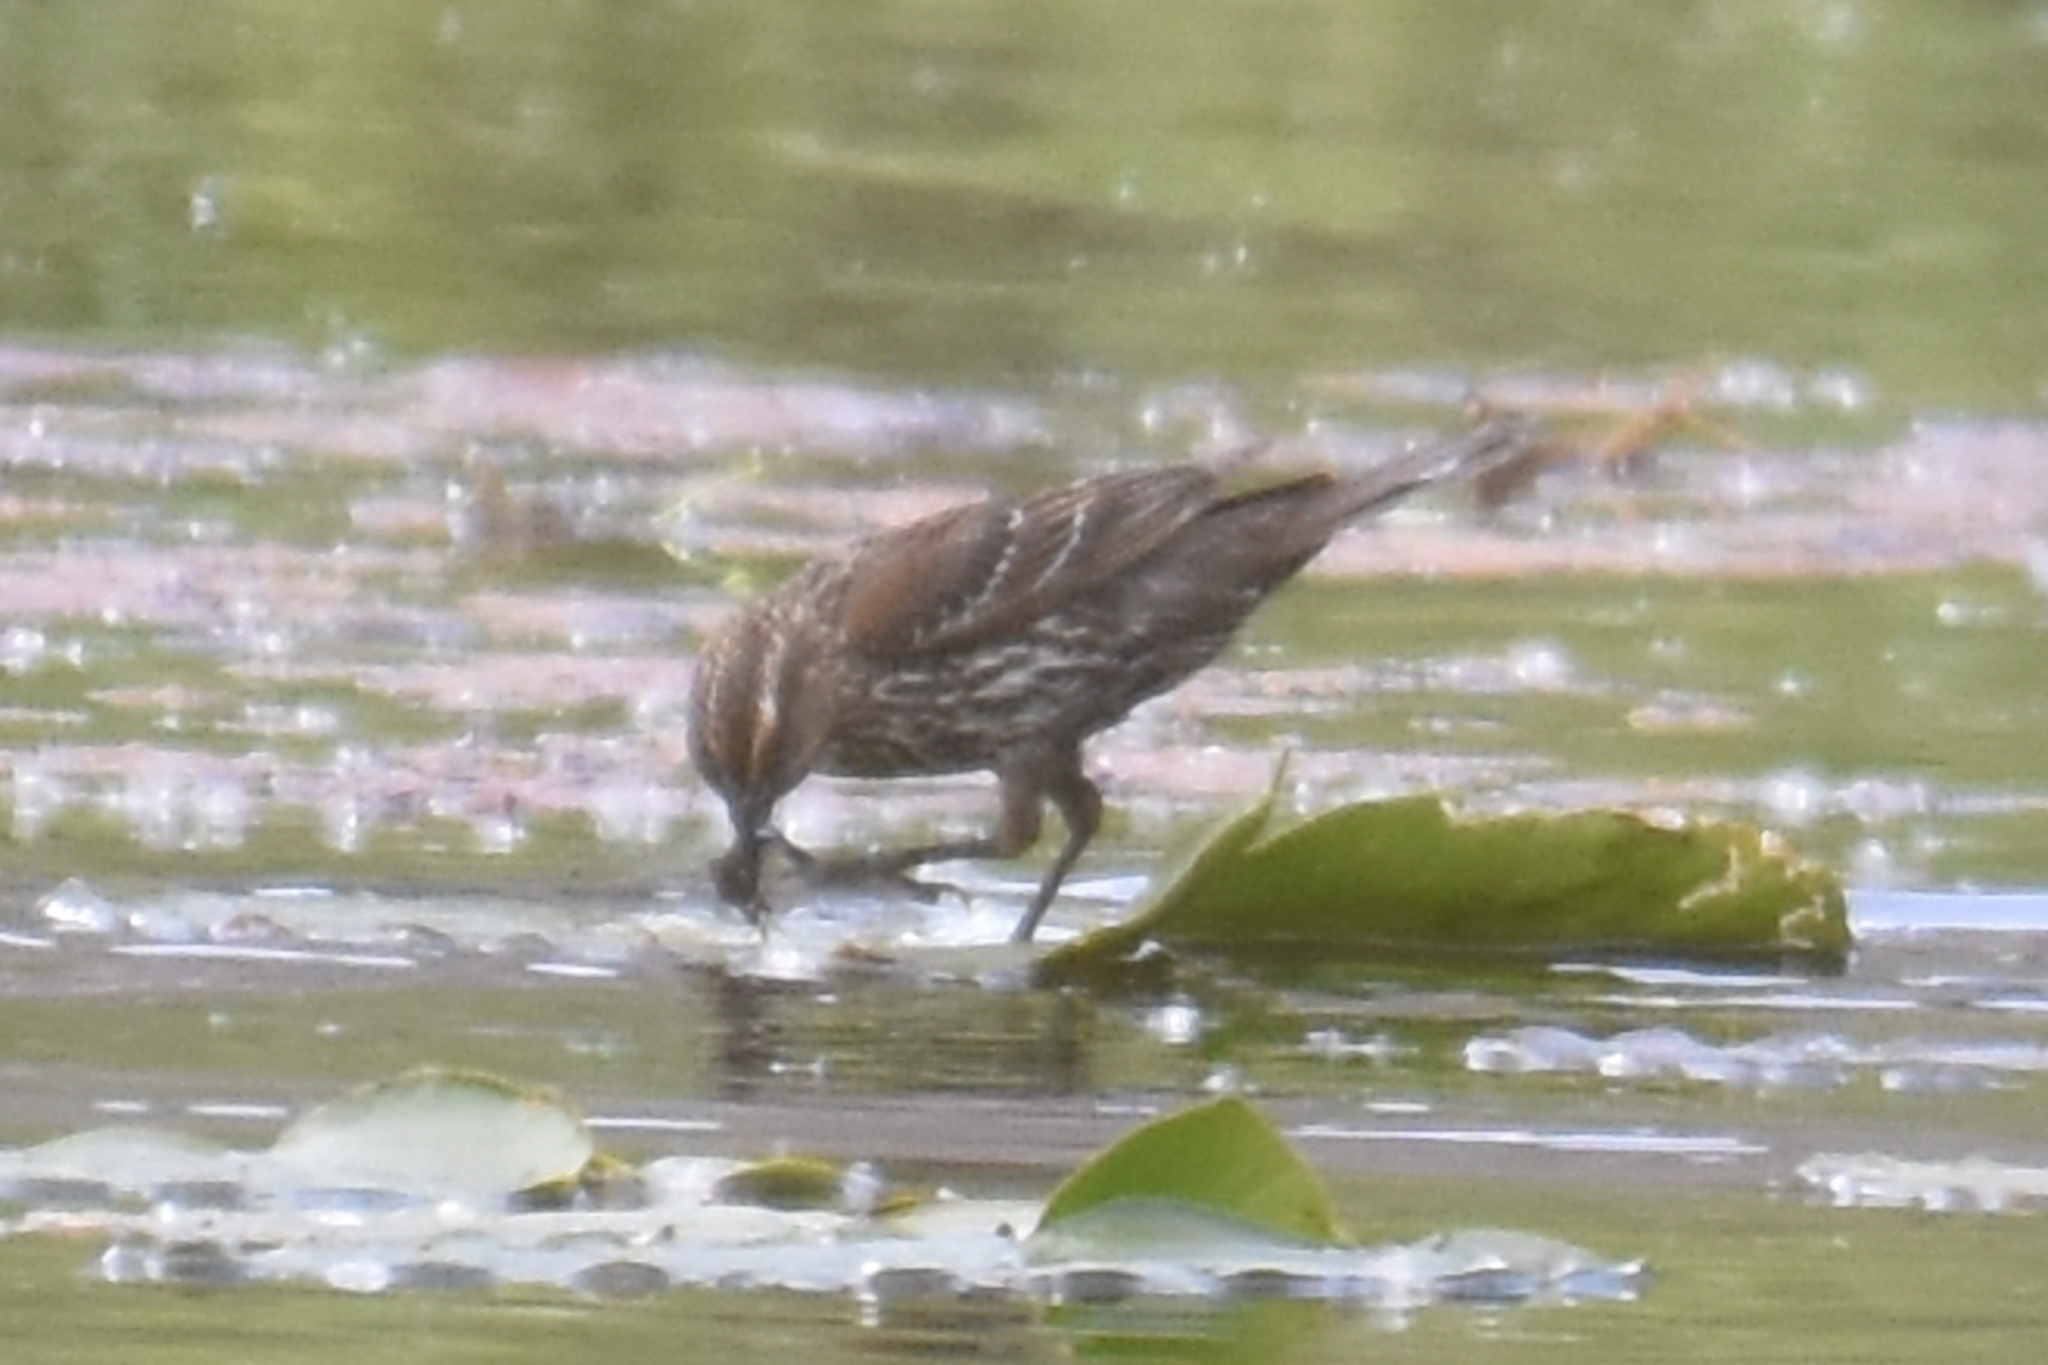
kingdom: Animalia
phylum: Chordata
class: Aves
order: Passeriformes
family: Icteridae
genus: Agelaius
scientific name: Agelaius phoeniceus
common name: Red-winged blackbird
